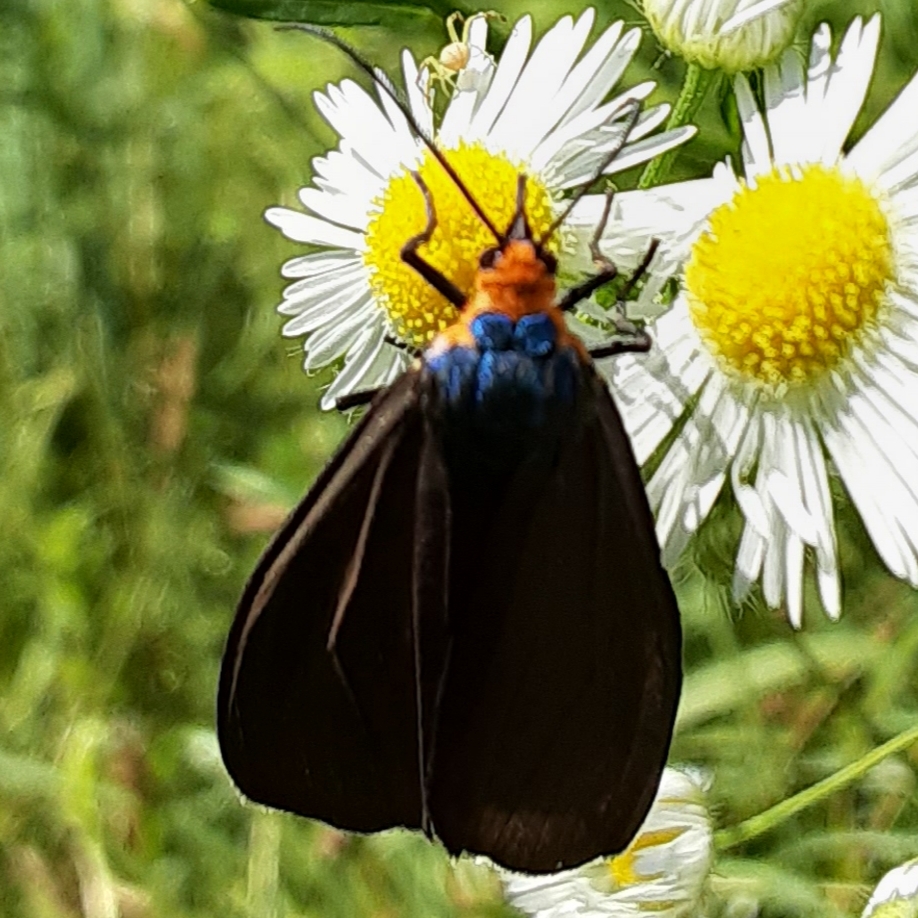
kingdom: Animalia
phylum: Arthropoda
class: Insecta
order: Lepidoptera
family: Erebidae
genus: Ctenucha
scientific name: Ctenucha virginica
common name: Virginia ctenucha moth
